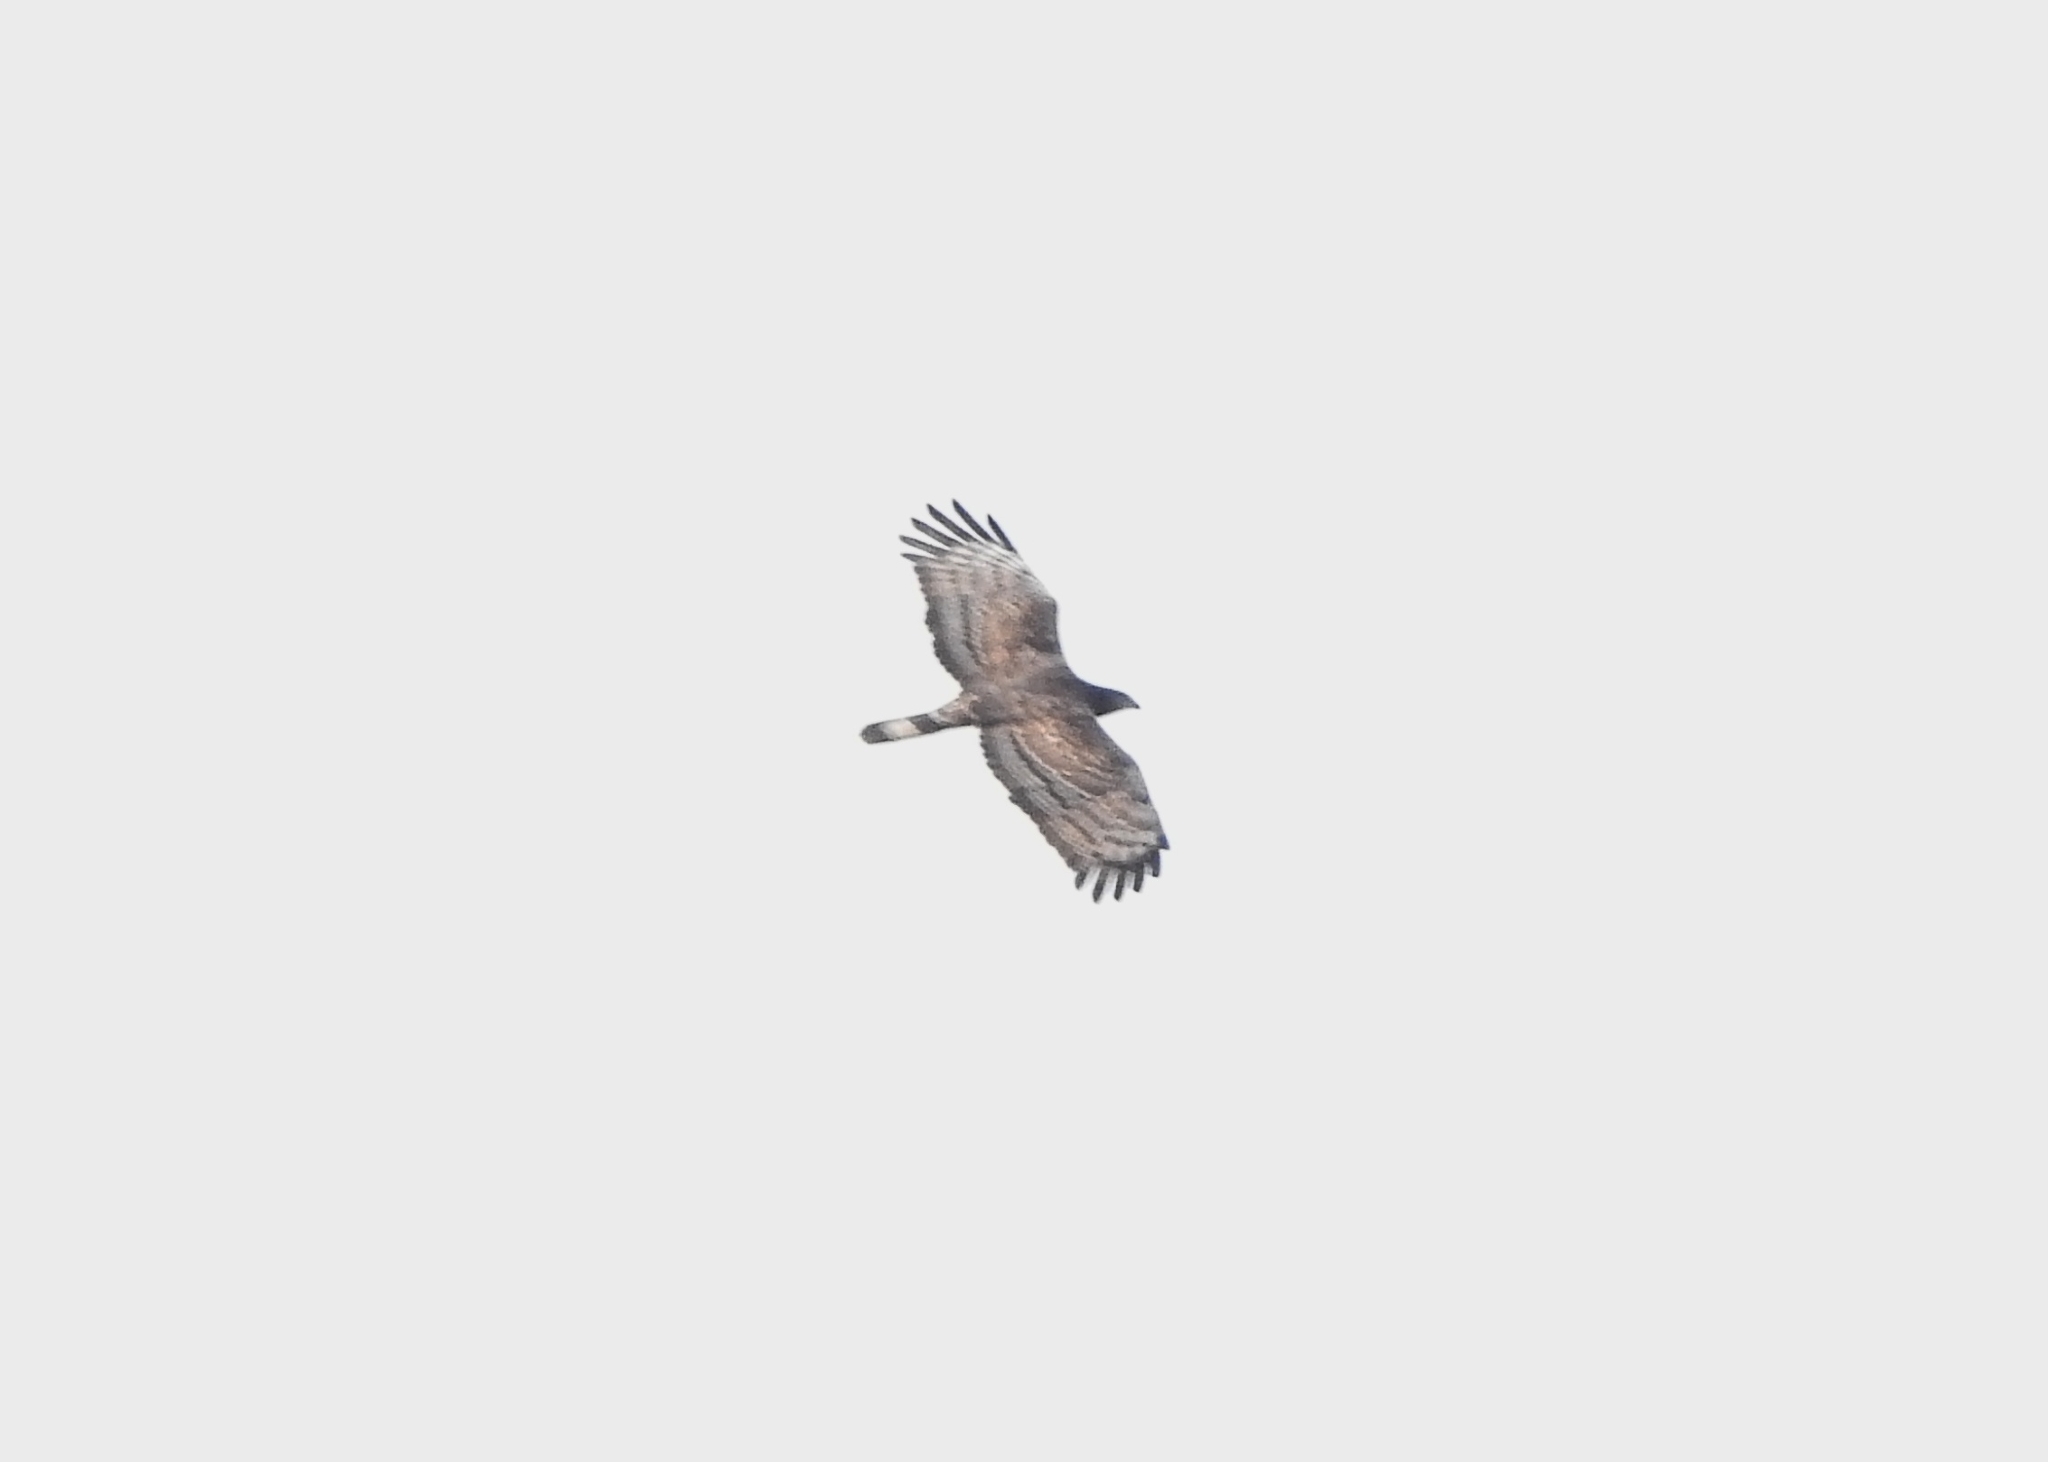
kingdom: Animalia
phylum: Chordata
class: Aves
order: Accipitriformes
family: Accipitridae
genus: Pernis
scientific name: Pernis ptilorhynchus
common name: Crested honey buzzard
